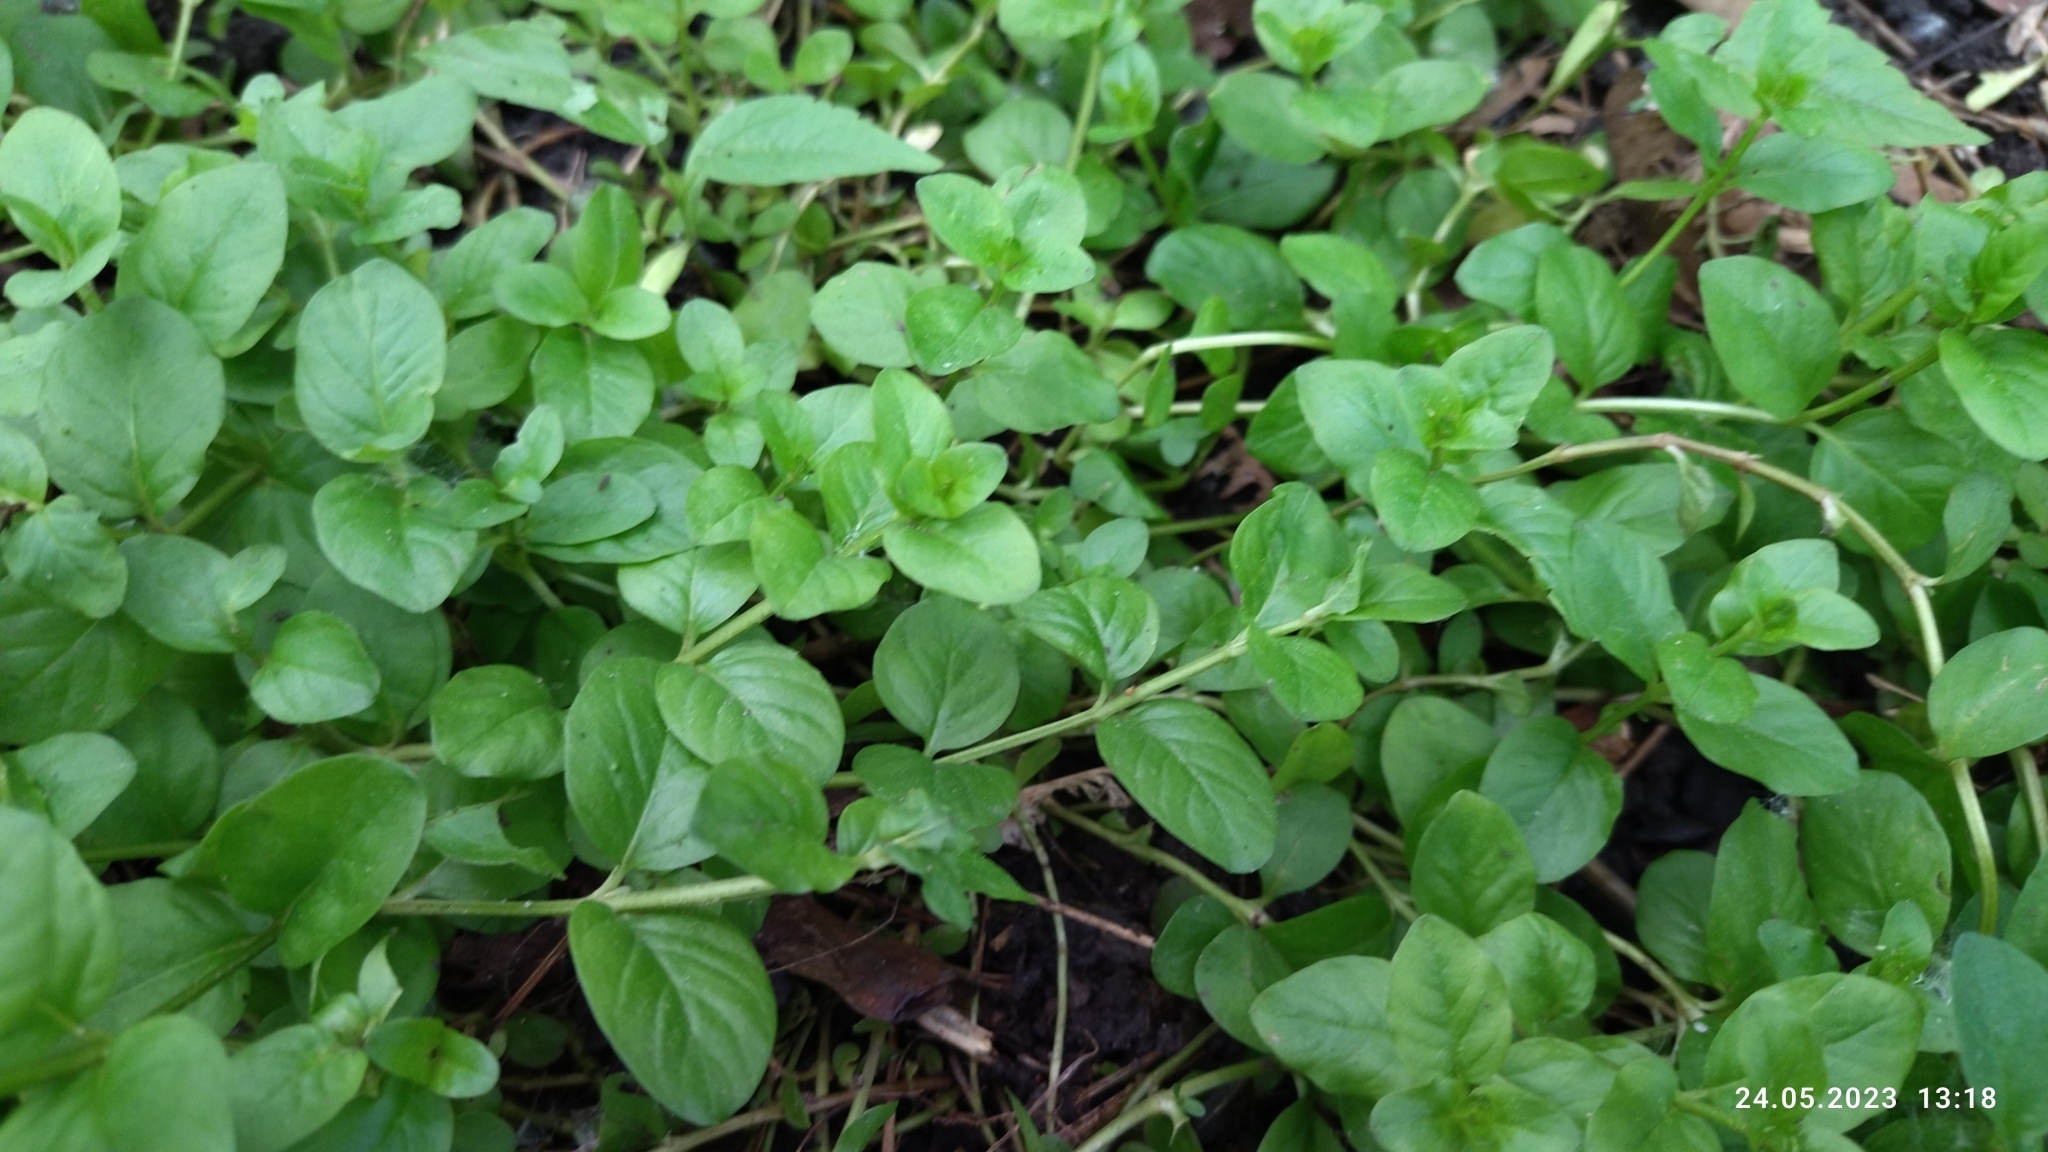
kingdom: Plantae
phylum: Tracheophyta
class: Magnoliopsida
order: Ericales
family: Primulaceae
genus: Lysimachia
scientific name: Lysimachia nummularia
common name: Moneywort
